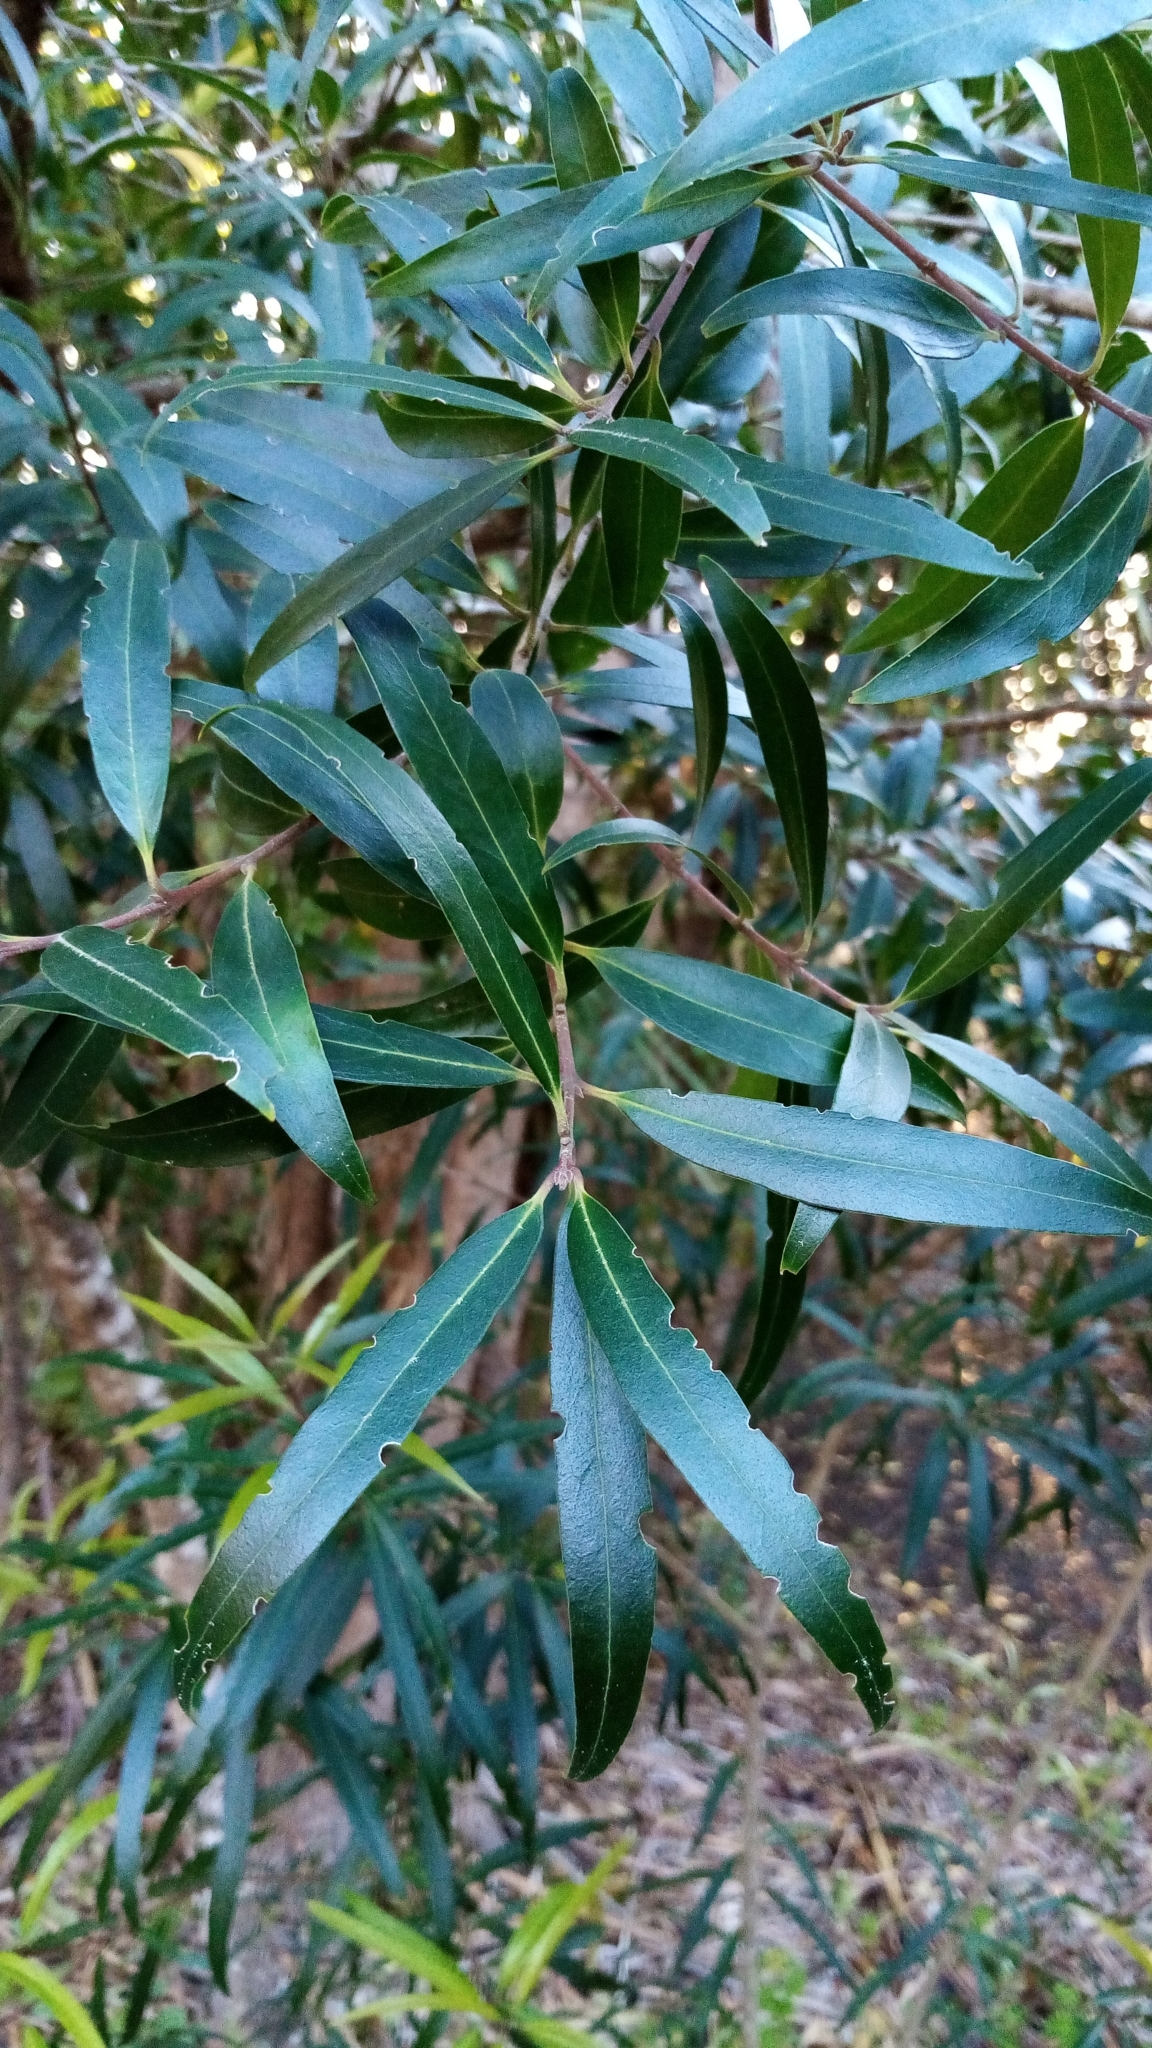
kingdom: Plantae
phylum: Tracheophyta
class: Magnoliopsida
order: Lamiales
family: Oleaceae
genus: Nestegis
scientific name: Nestegis lanceolata
